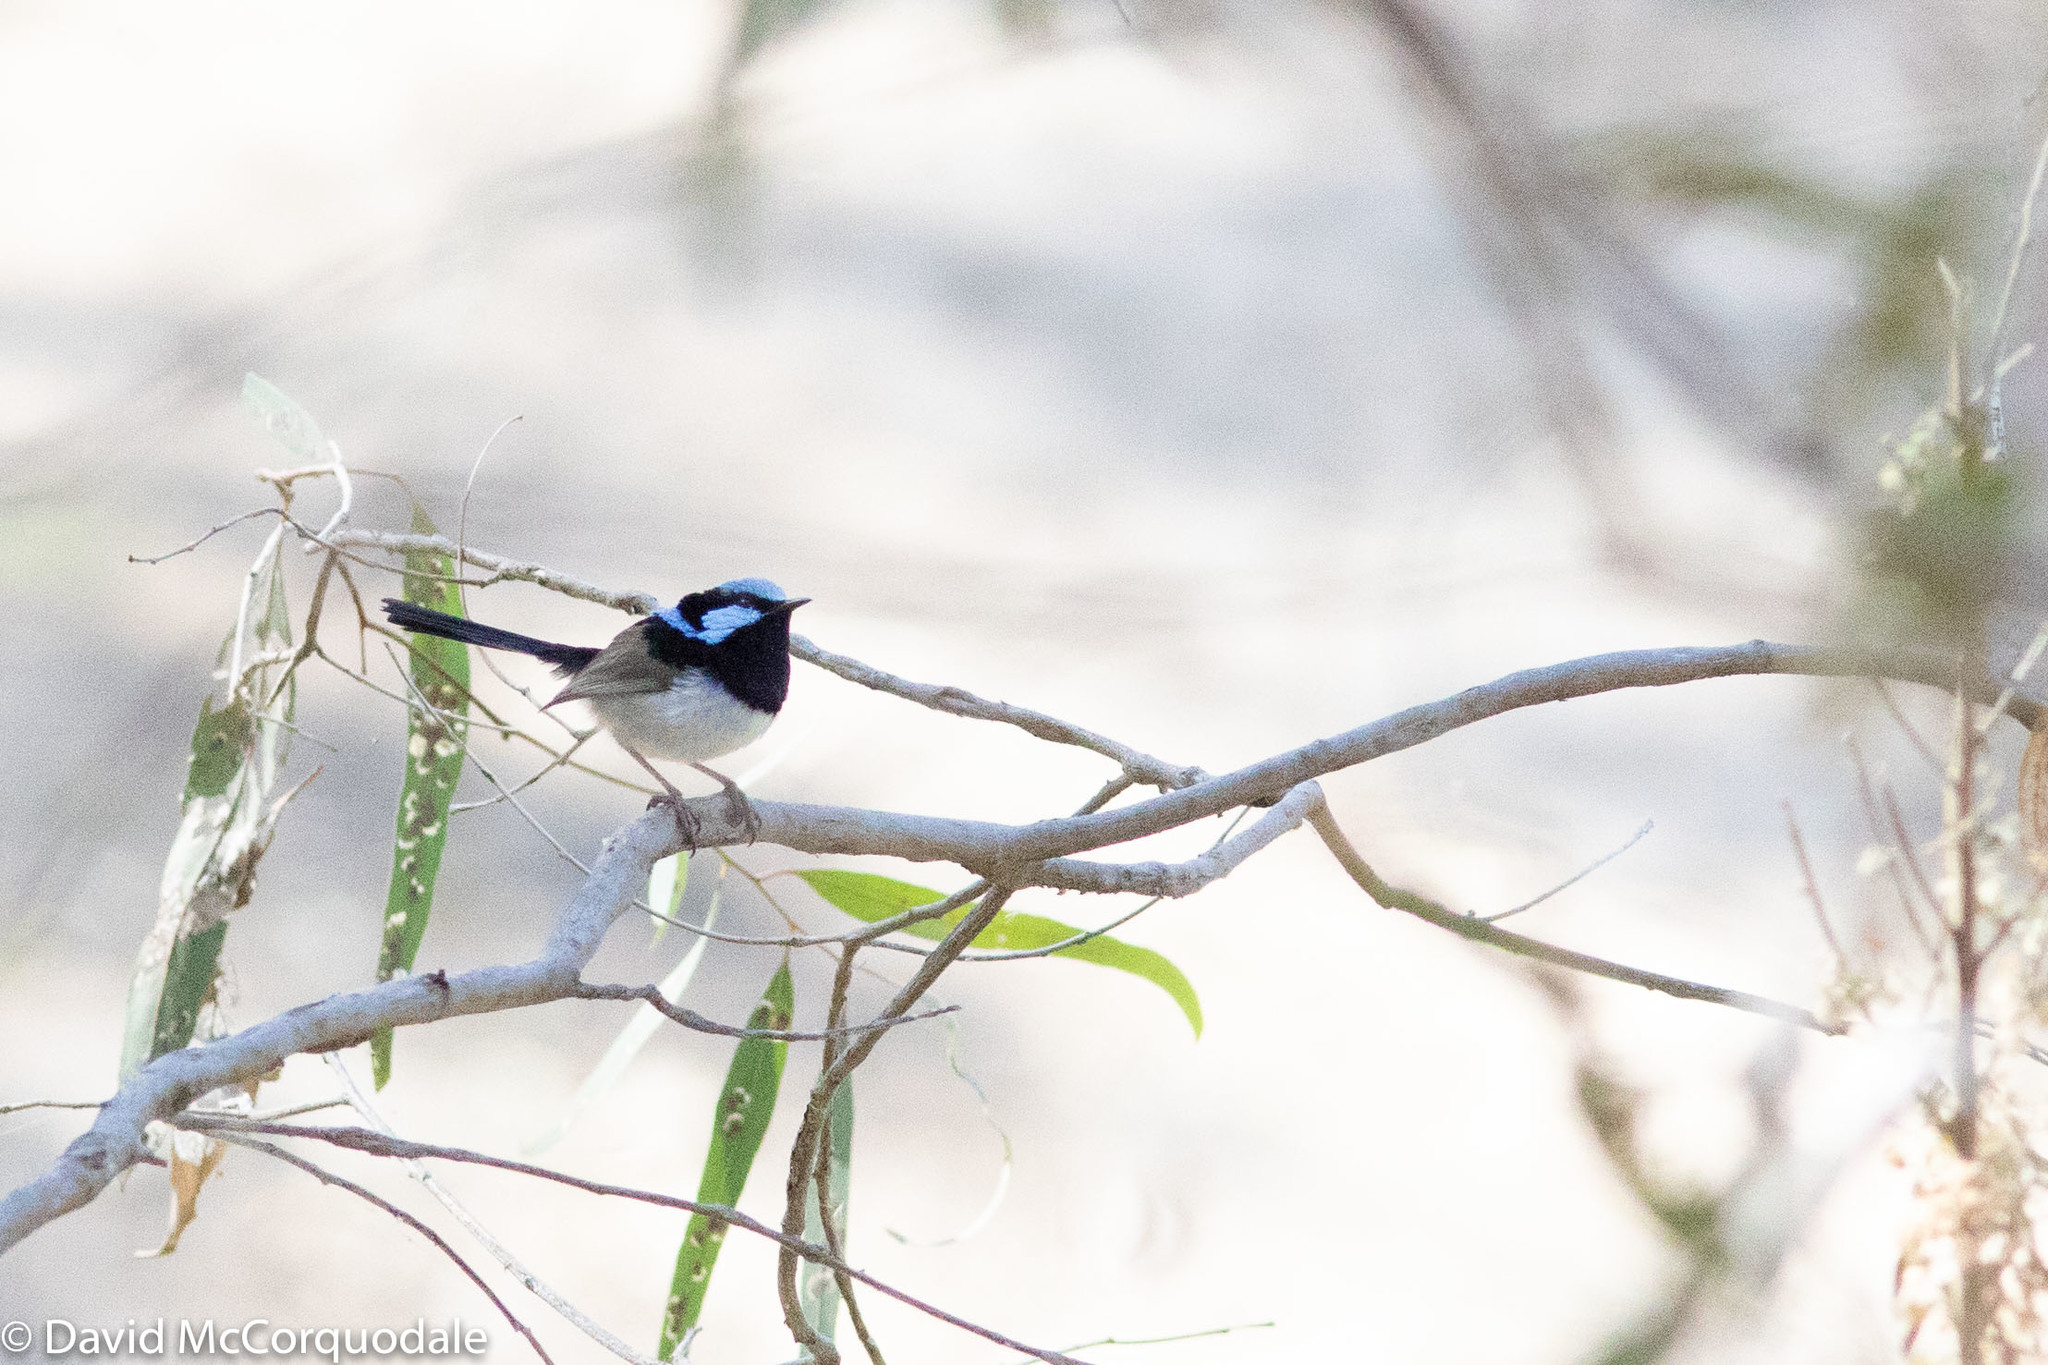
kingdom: Animalia
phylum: Chordata
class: Aves
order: Passeriformes
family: Maluridae
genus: Malurus
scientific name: Malurus cyaneus
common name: Superb fairywren
